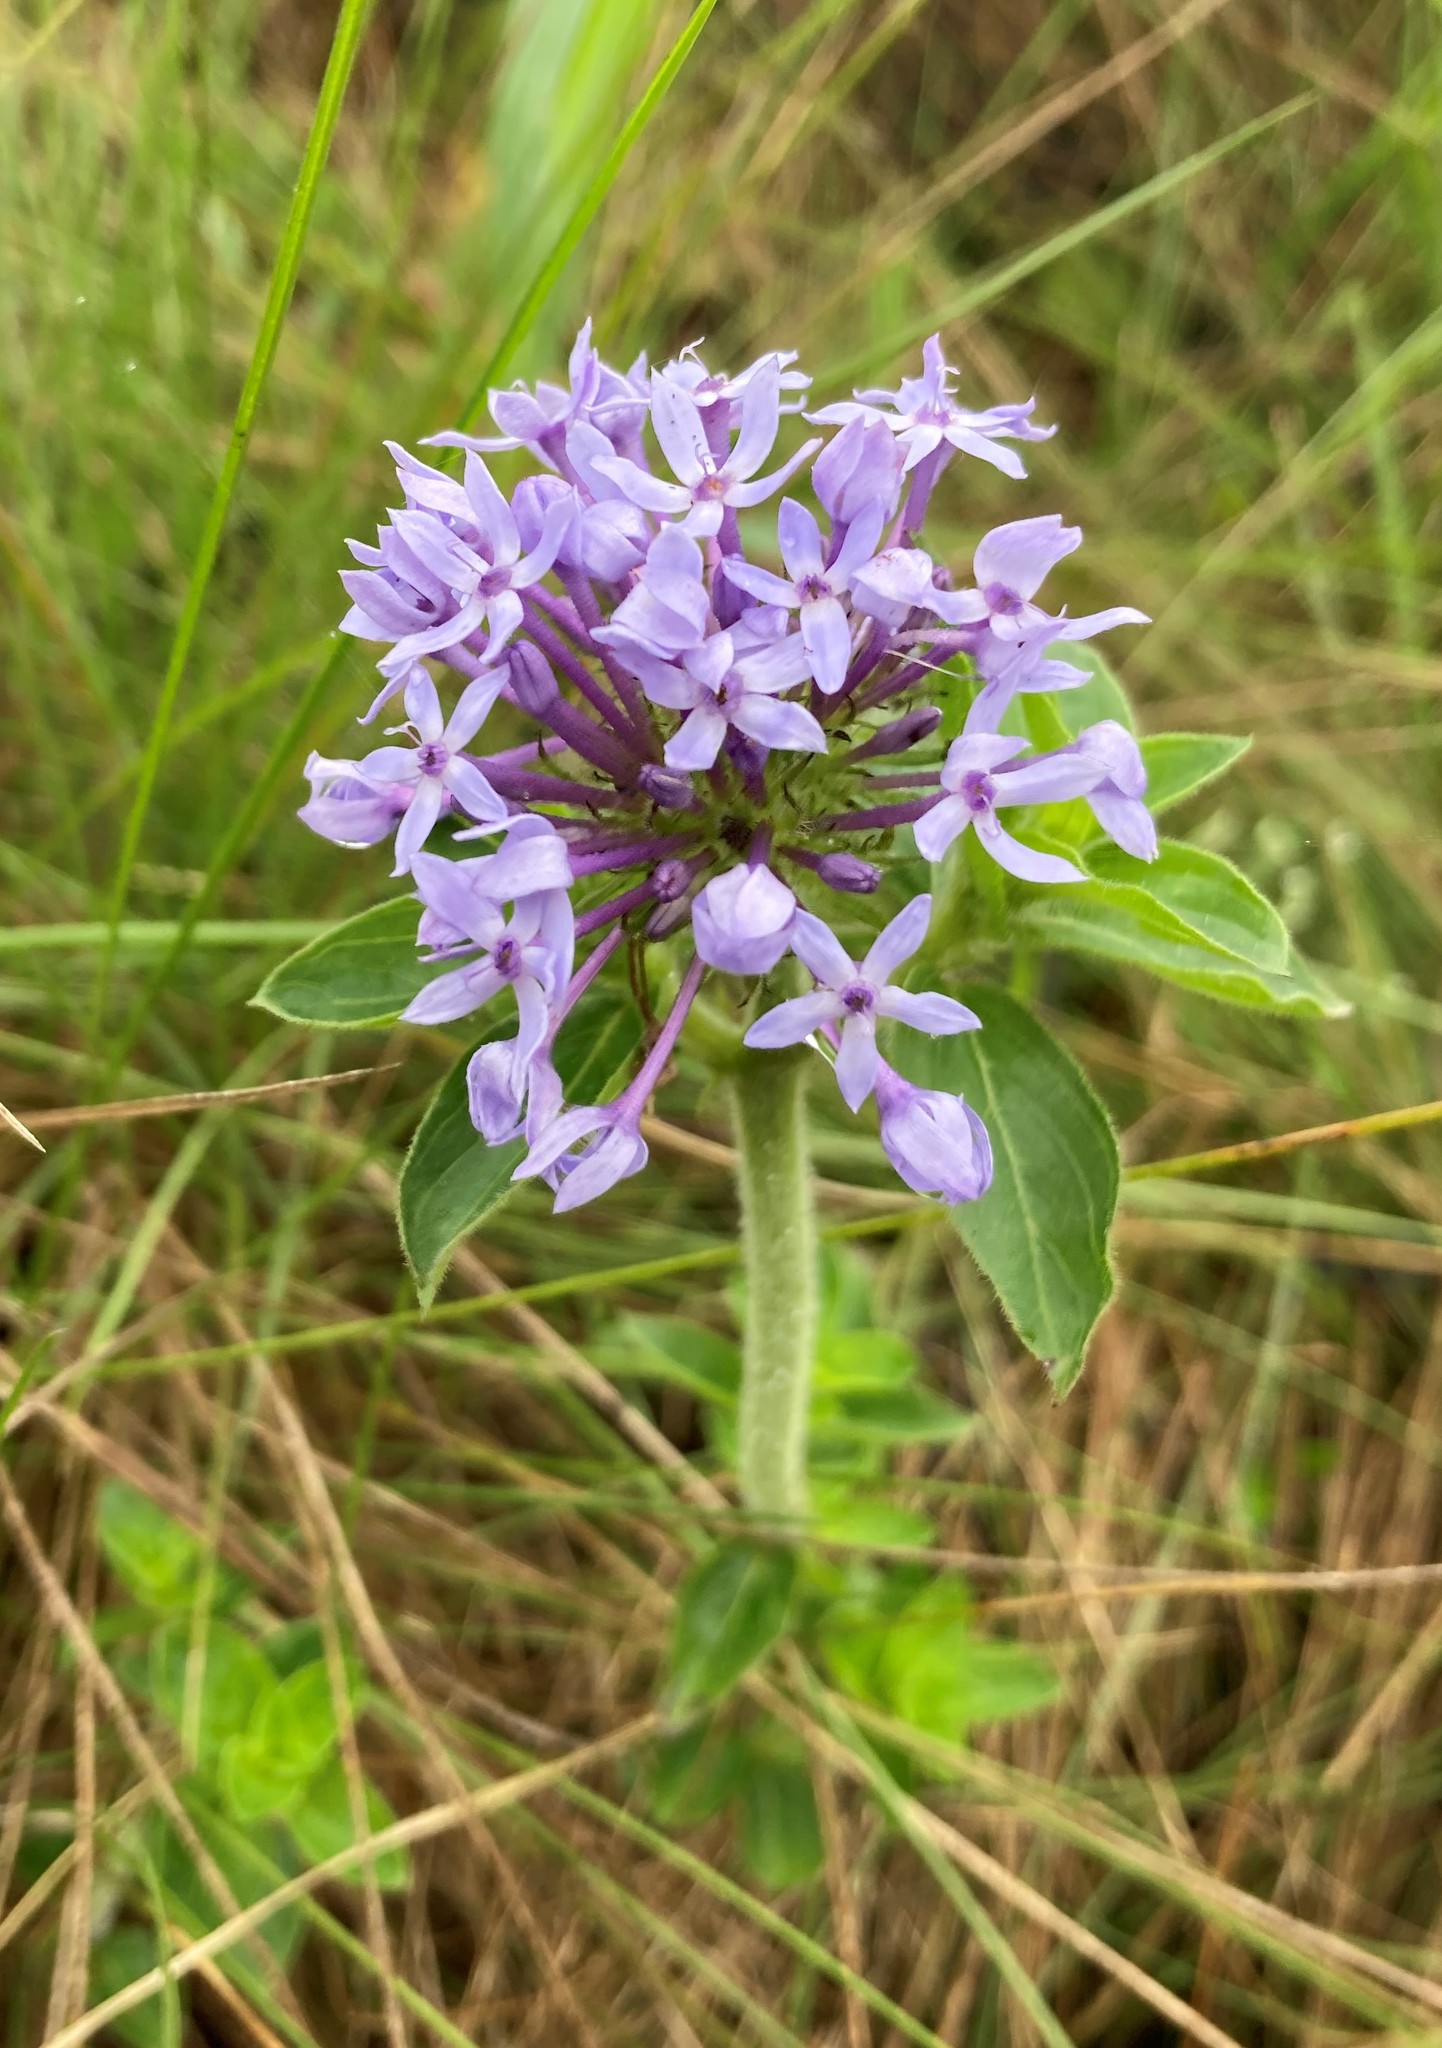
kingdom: Plantae
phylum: Tracheophyta
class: Magnoliopsida
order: Gentianales
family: Rubiaceae
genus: Pentanisia
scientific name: Pentanisia prunelloides
